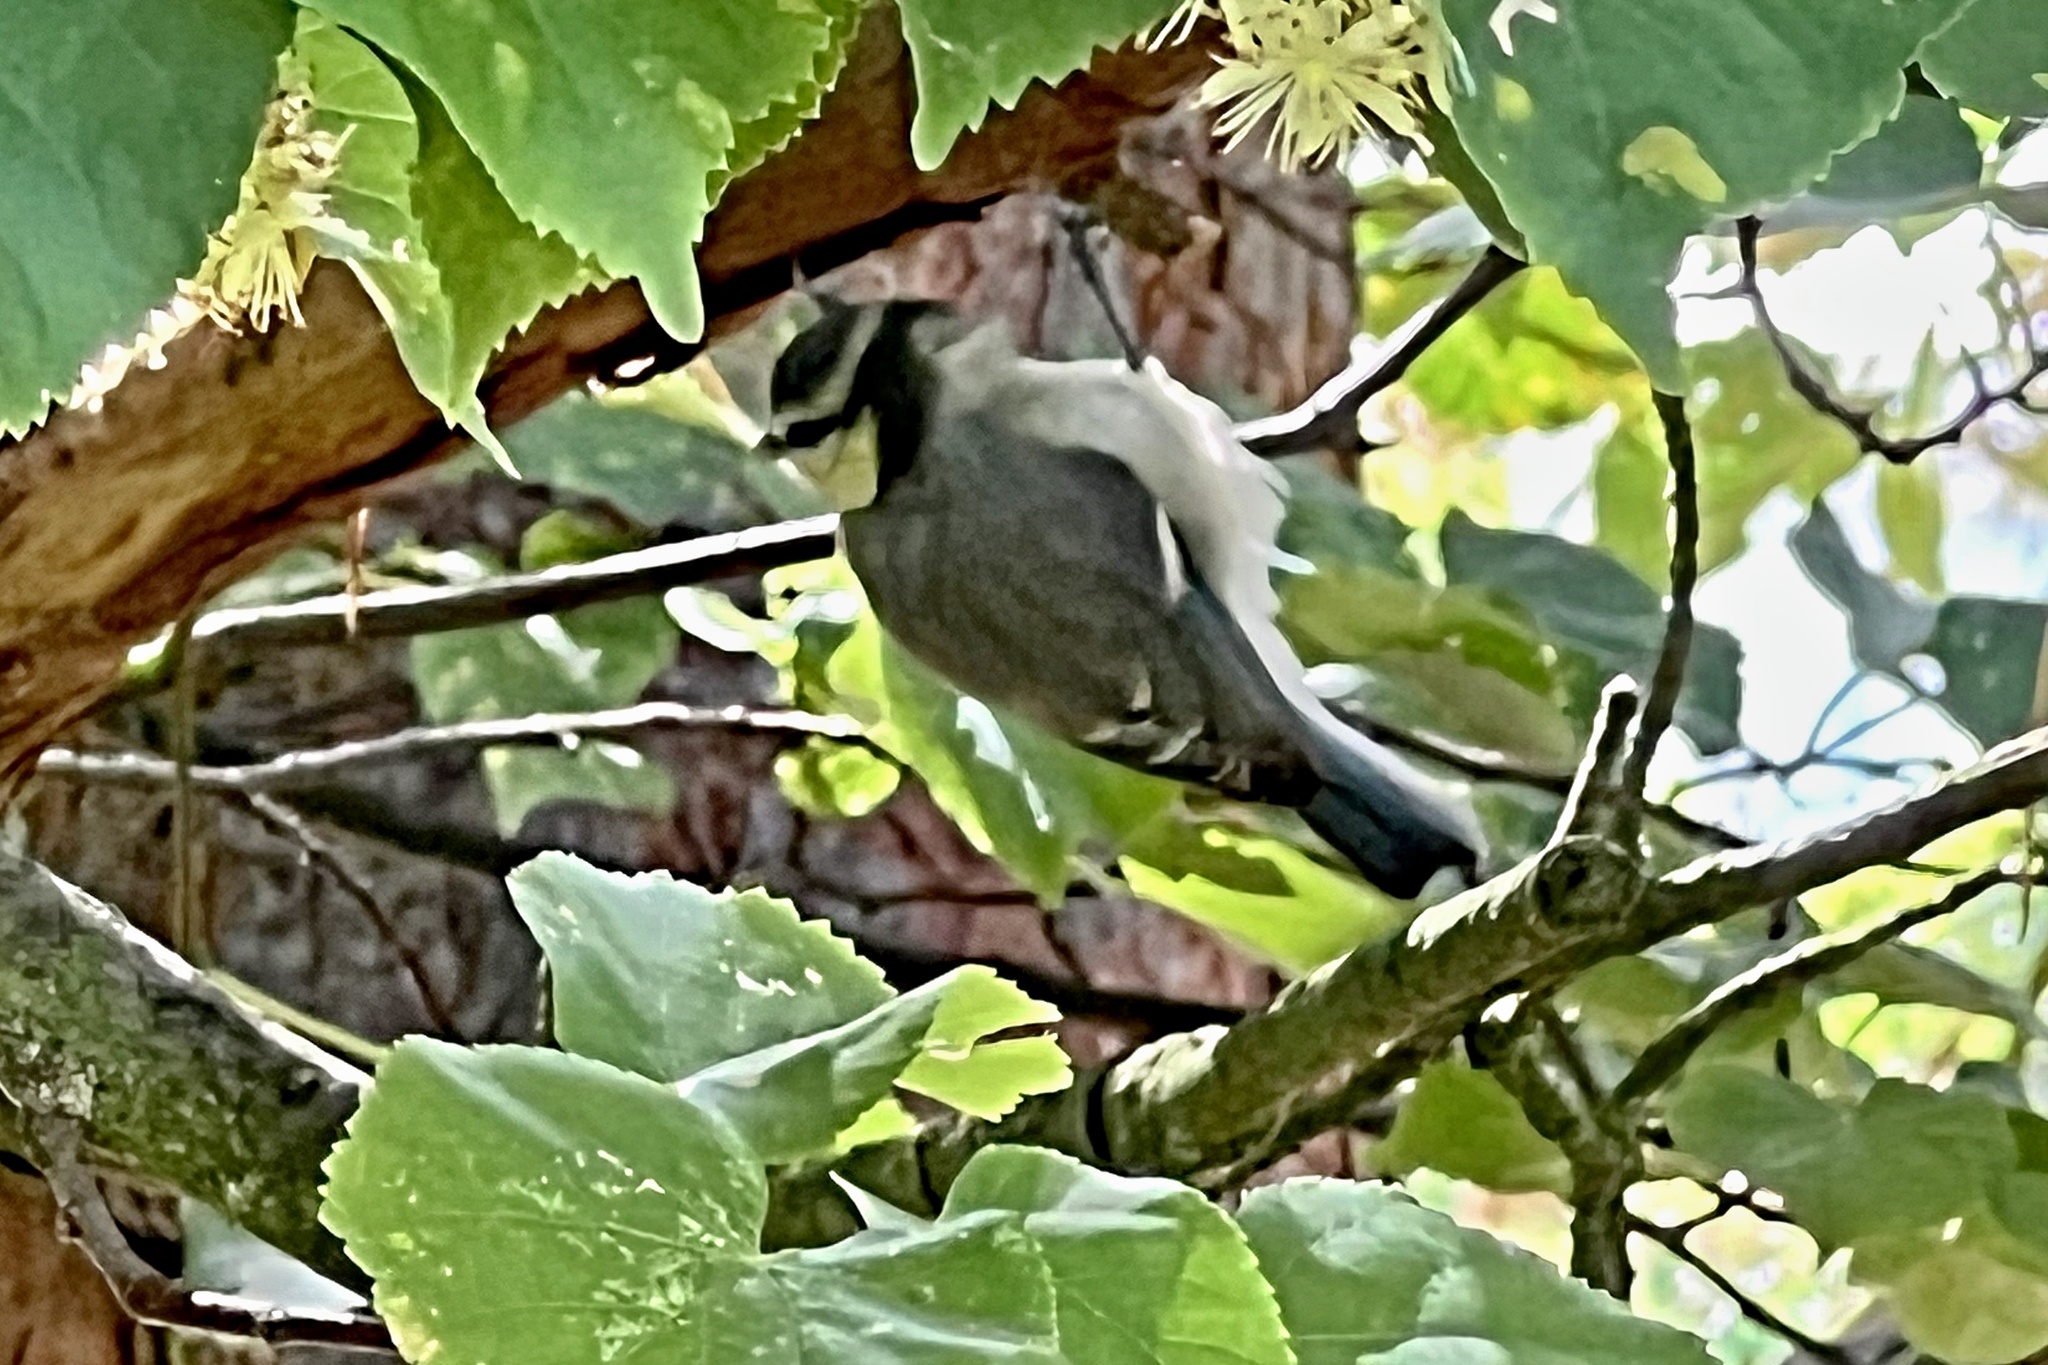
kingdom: Animalia
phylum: Chordata
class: Aves
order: Passeriformes
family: Paridae
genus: Cyanistes
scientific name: Cyanistes caeruleus
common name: Eurasian blue tit
